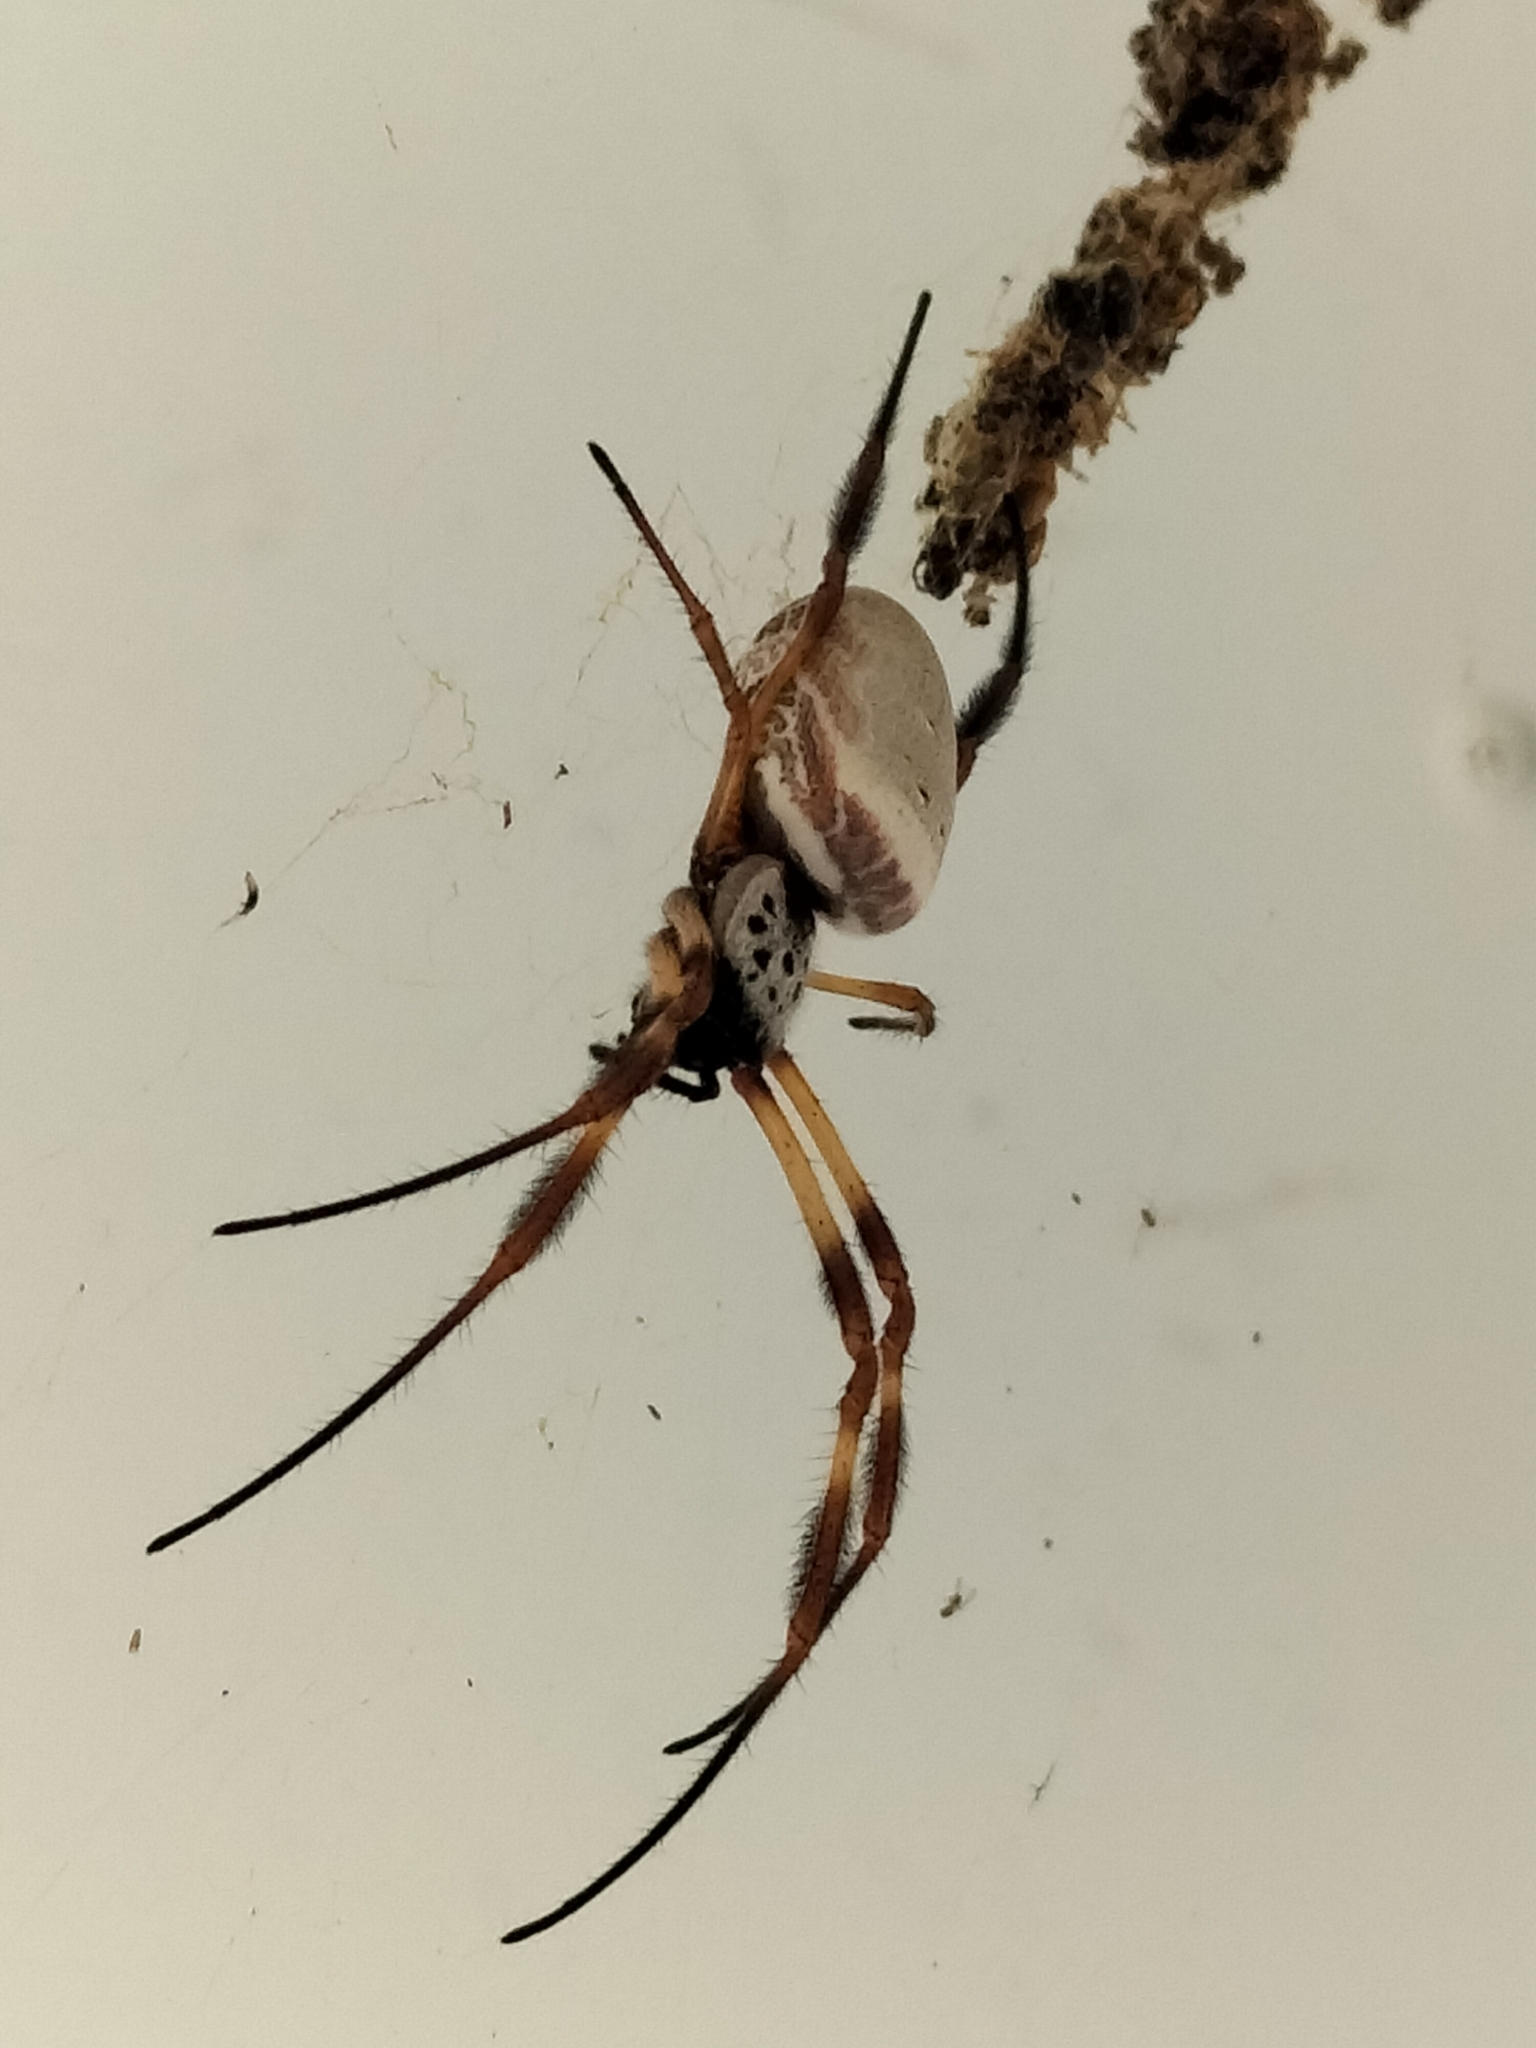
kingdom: Animalia
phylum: Arthropoda
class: Arachnida
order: Araneae
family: Araneidae
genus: Trichonephila
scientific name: Trichonephila edulis
